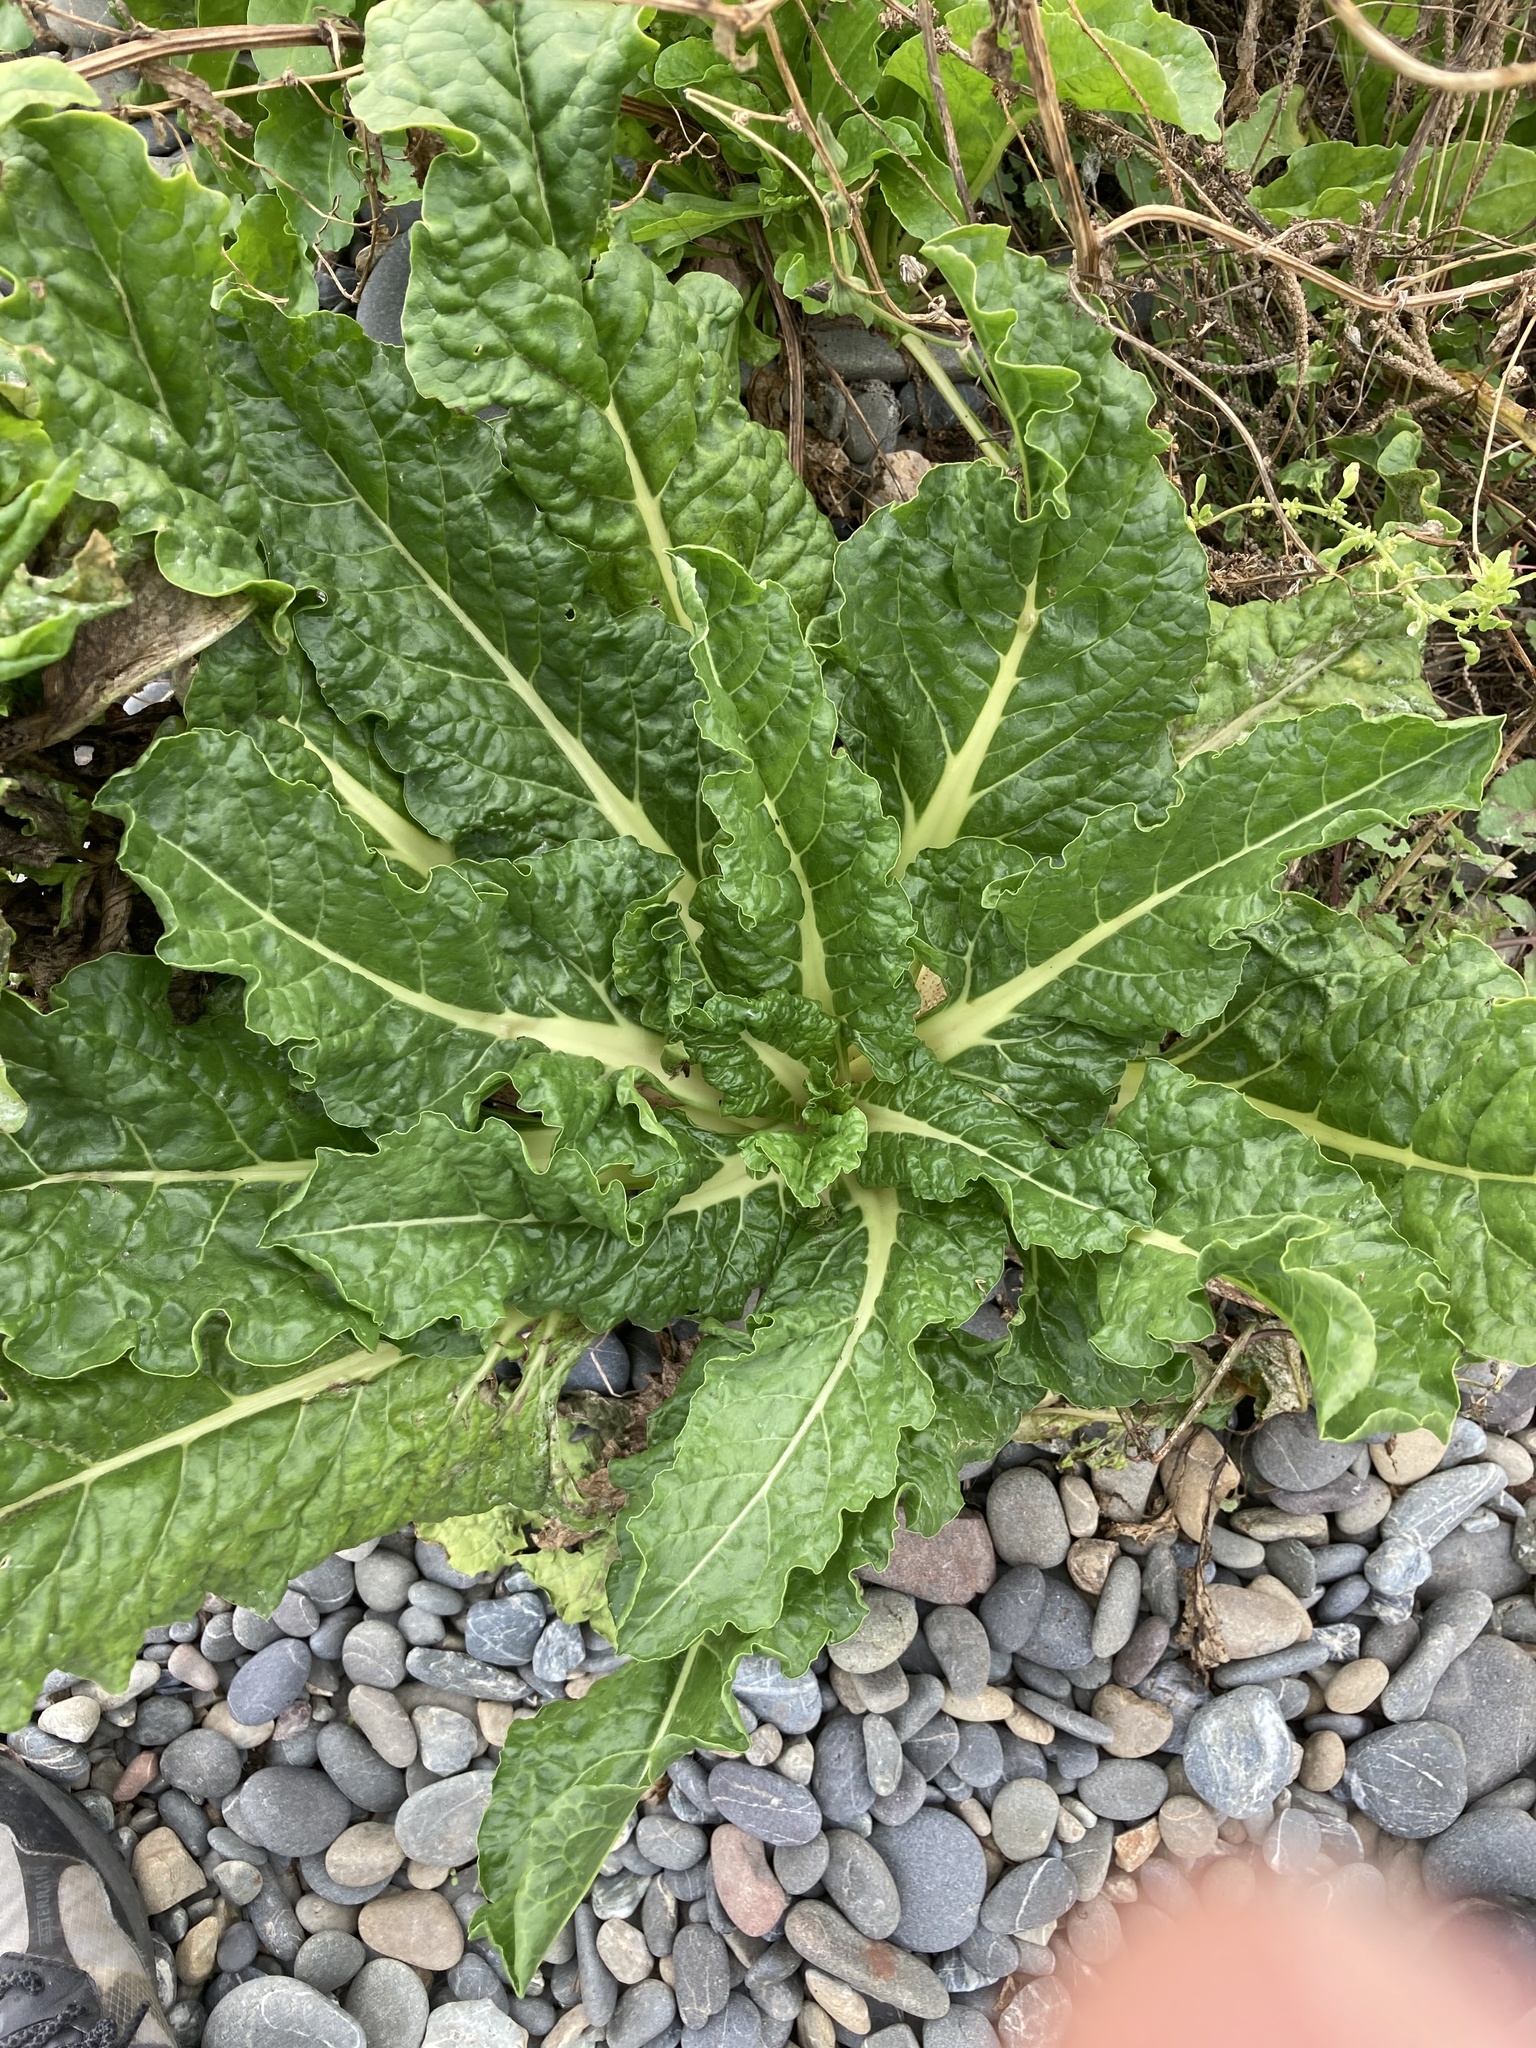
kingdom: Plantae
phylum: Tracheophyta
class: Magnoliopsida
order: Caryophyllales
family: Amaranthaceae
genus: Beta
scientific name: Beta vulgaris
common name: Beet
